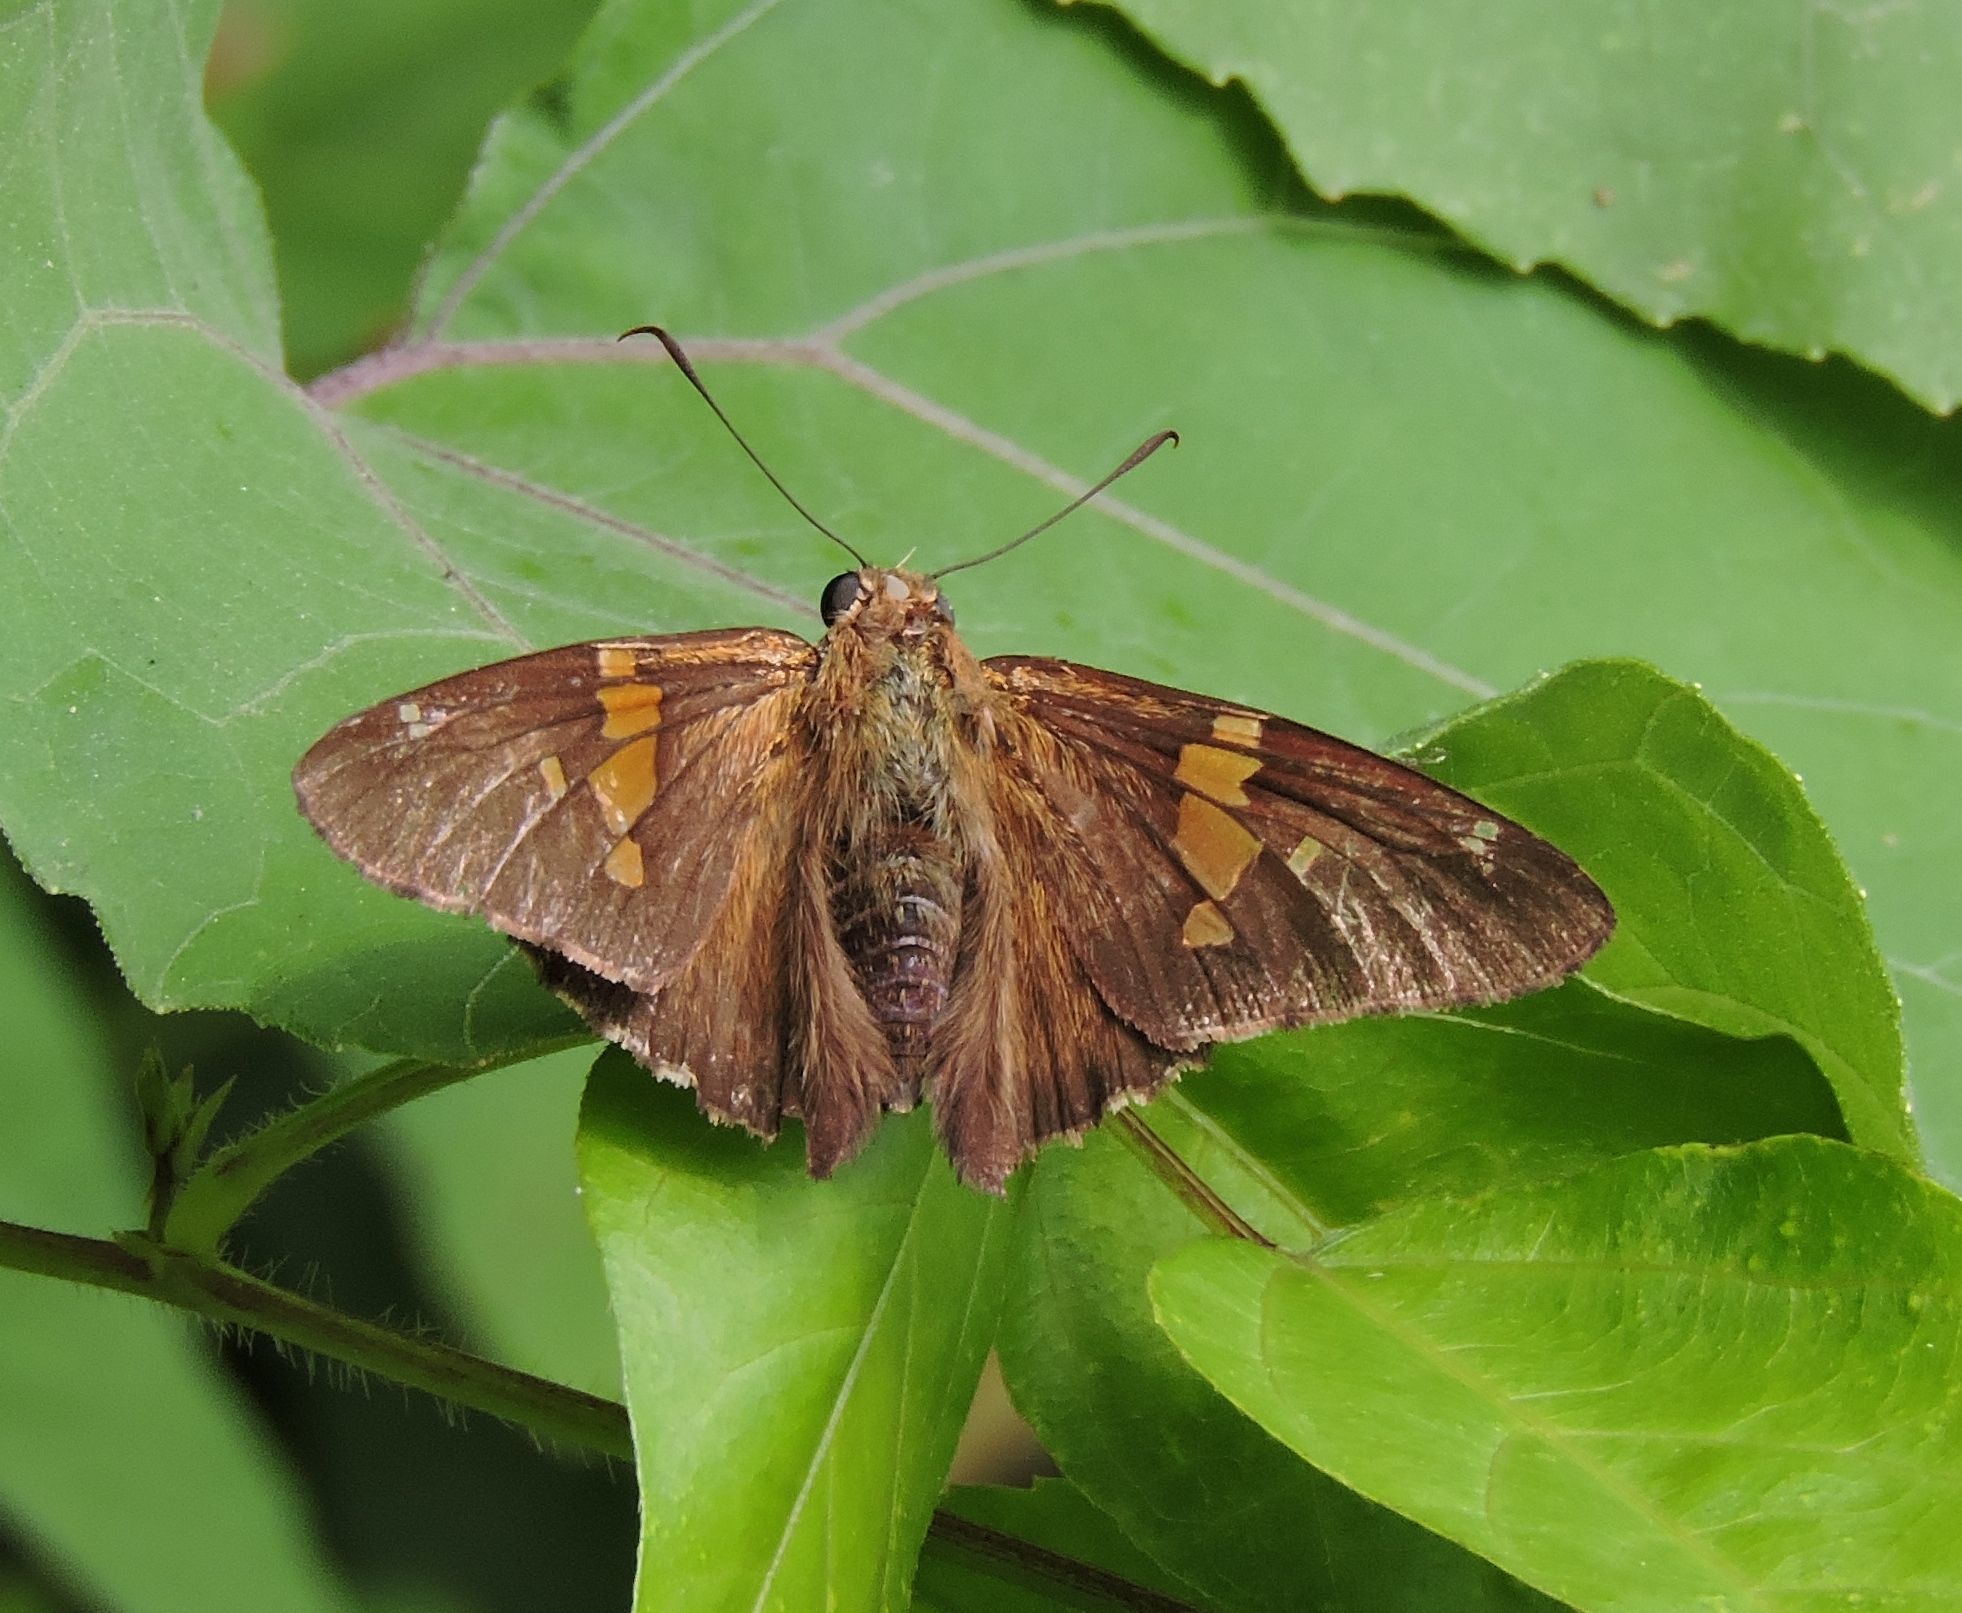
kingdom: Animalia
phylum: Arthropoda
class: Insecta
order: Lepidoptera
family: Hesperiidae
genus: Epargyreus
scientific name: Epargyreus clarus
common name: Silver-spotted skipper
